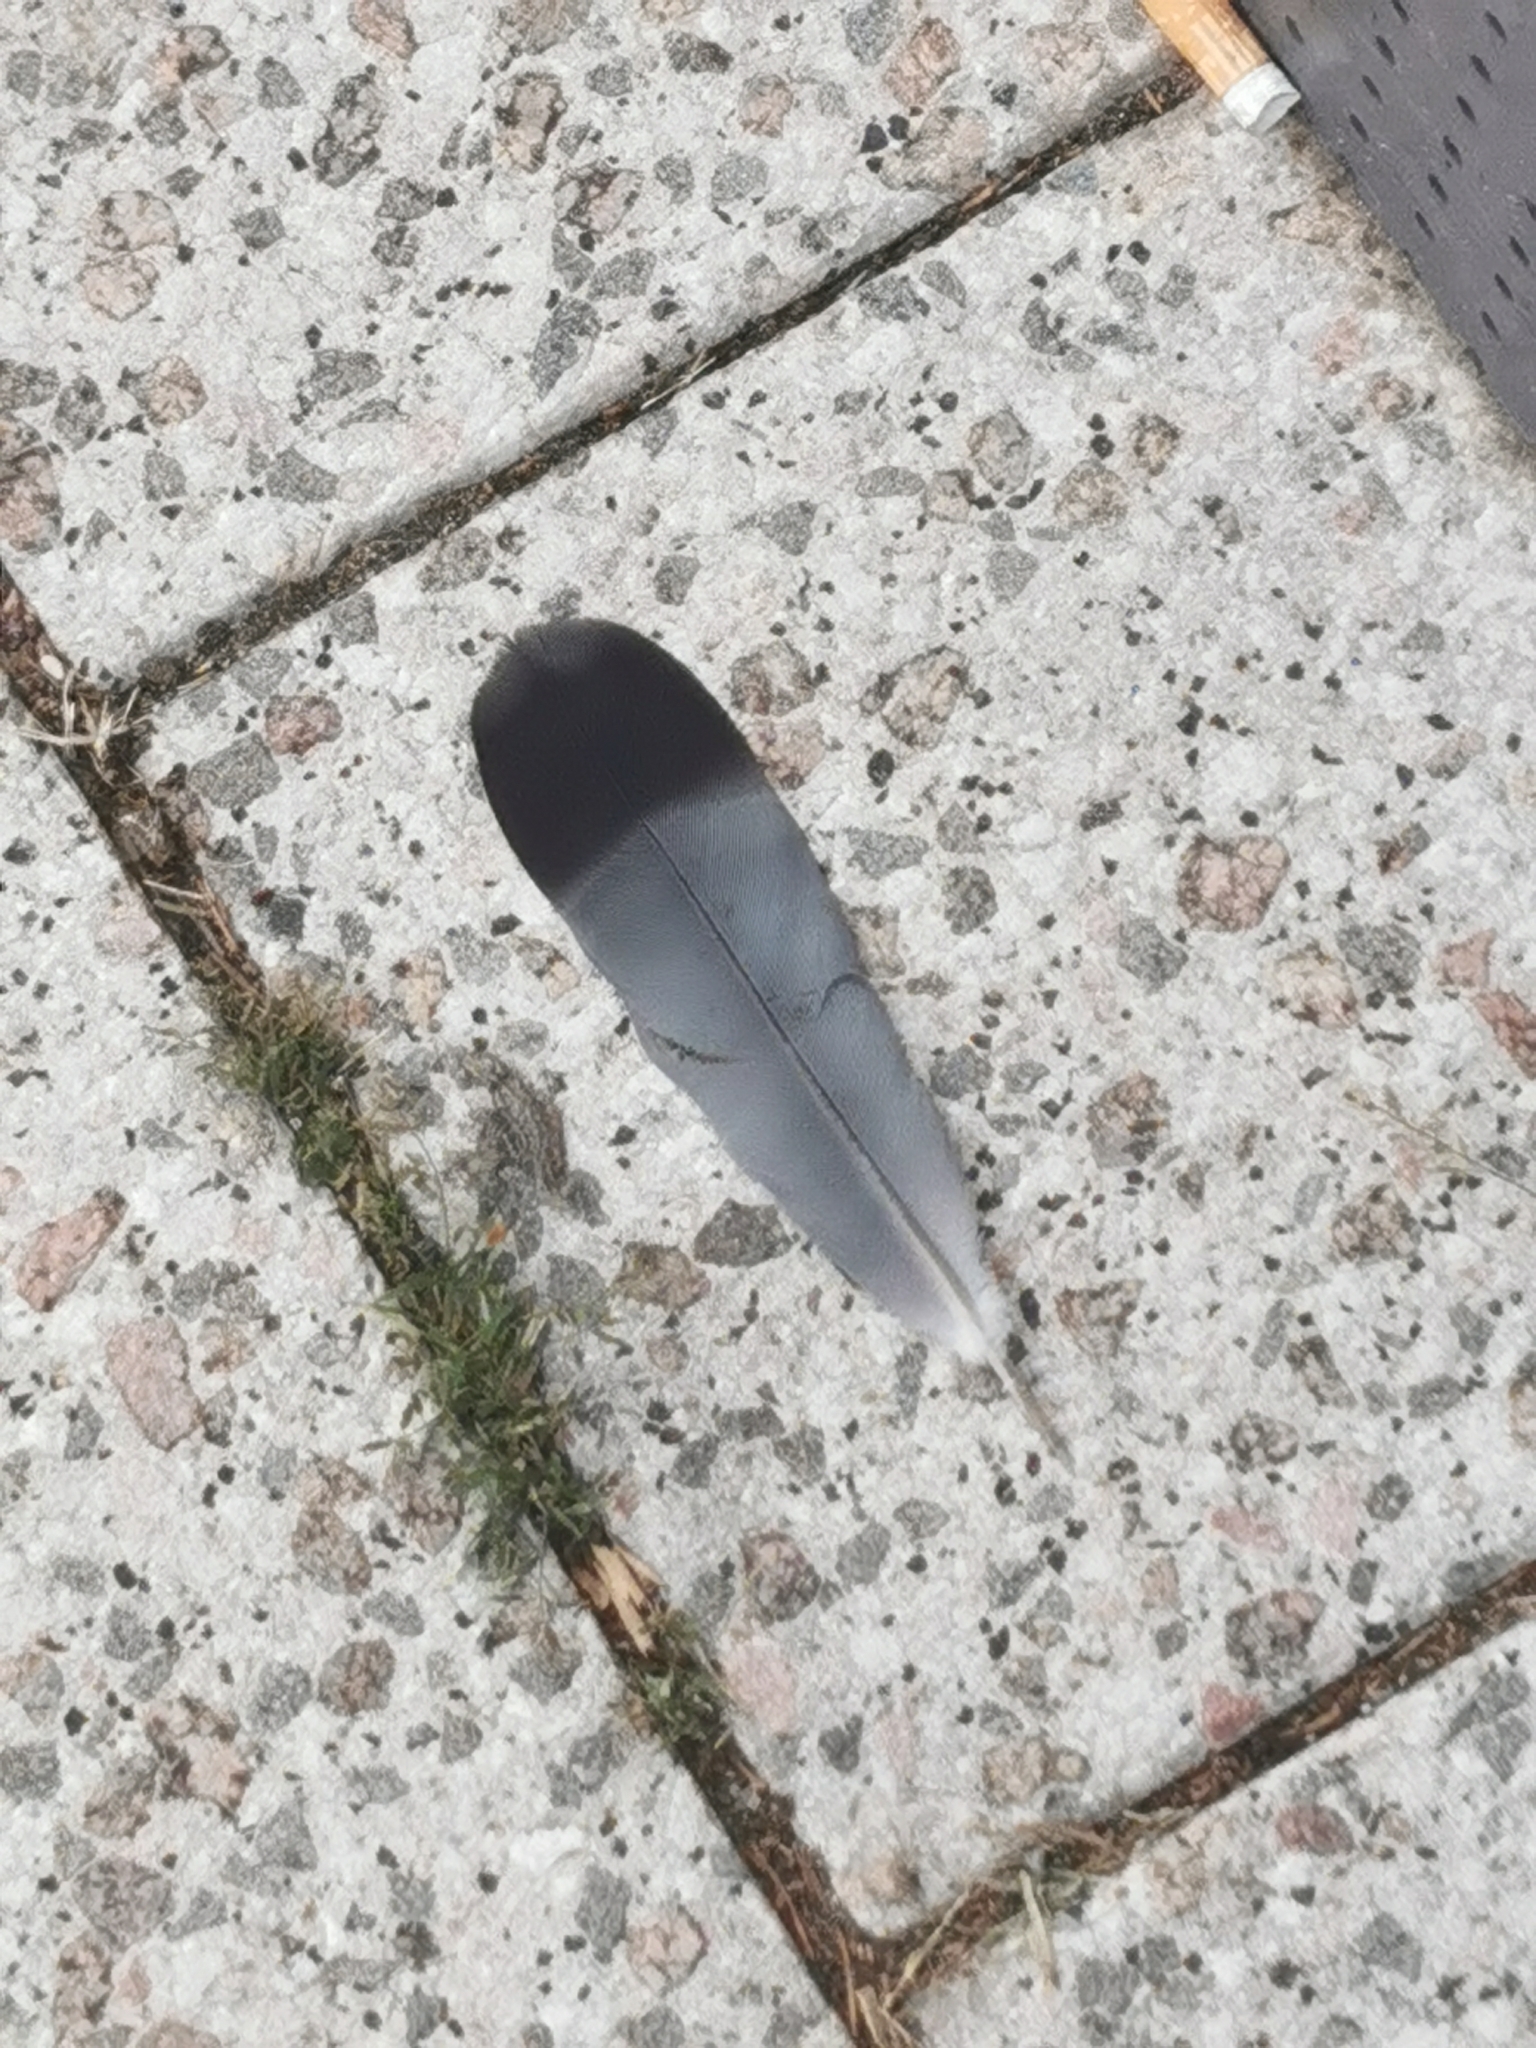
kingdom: Animalia
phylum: Chordata
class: Aves
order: Columbiformes
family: Columbidae
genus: Columba
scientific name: Columba livia
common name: Rock pigeon
